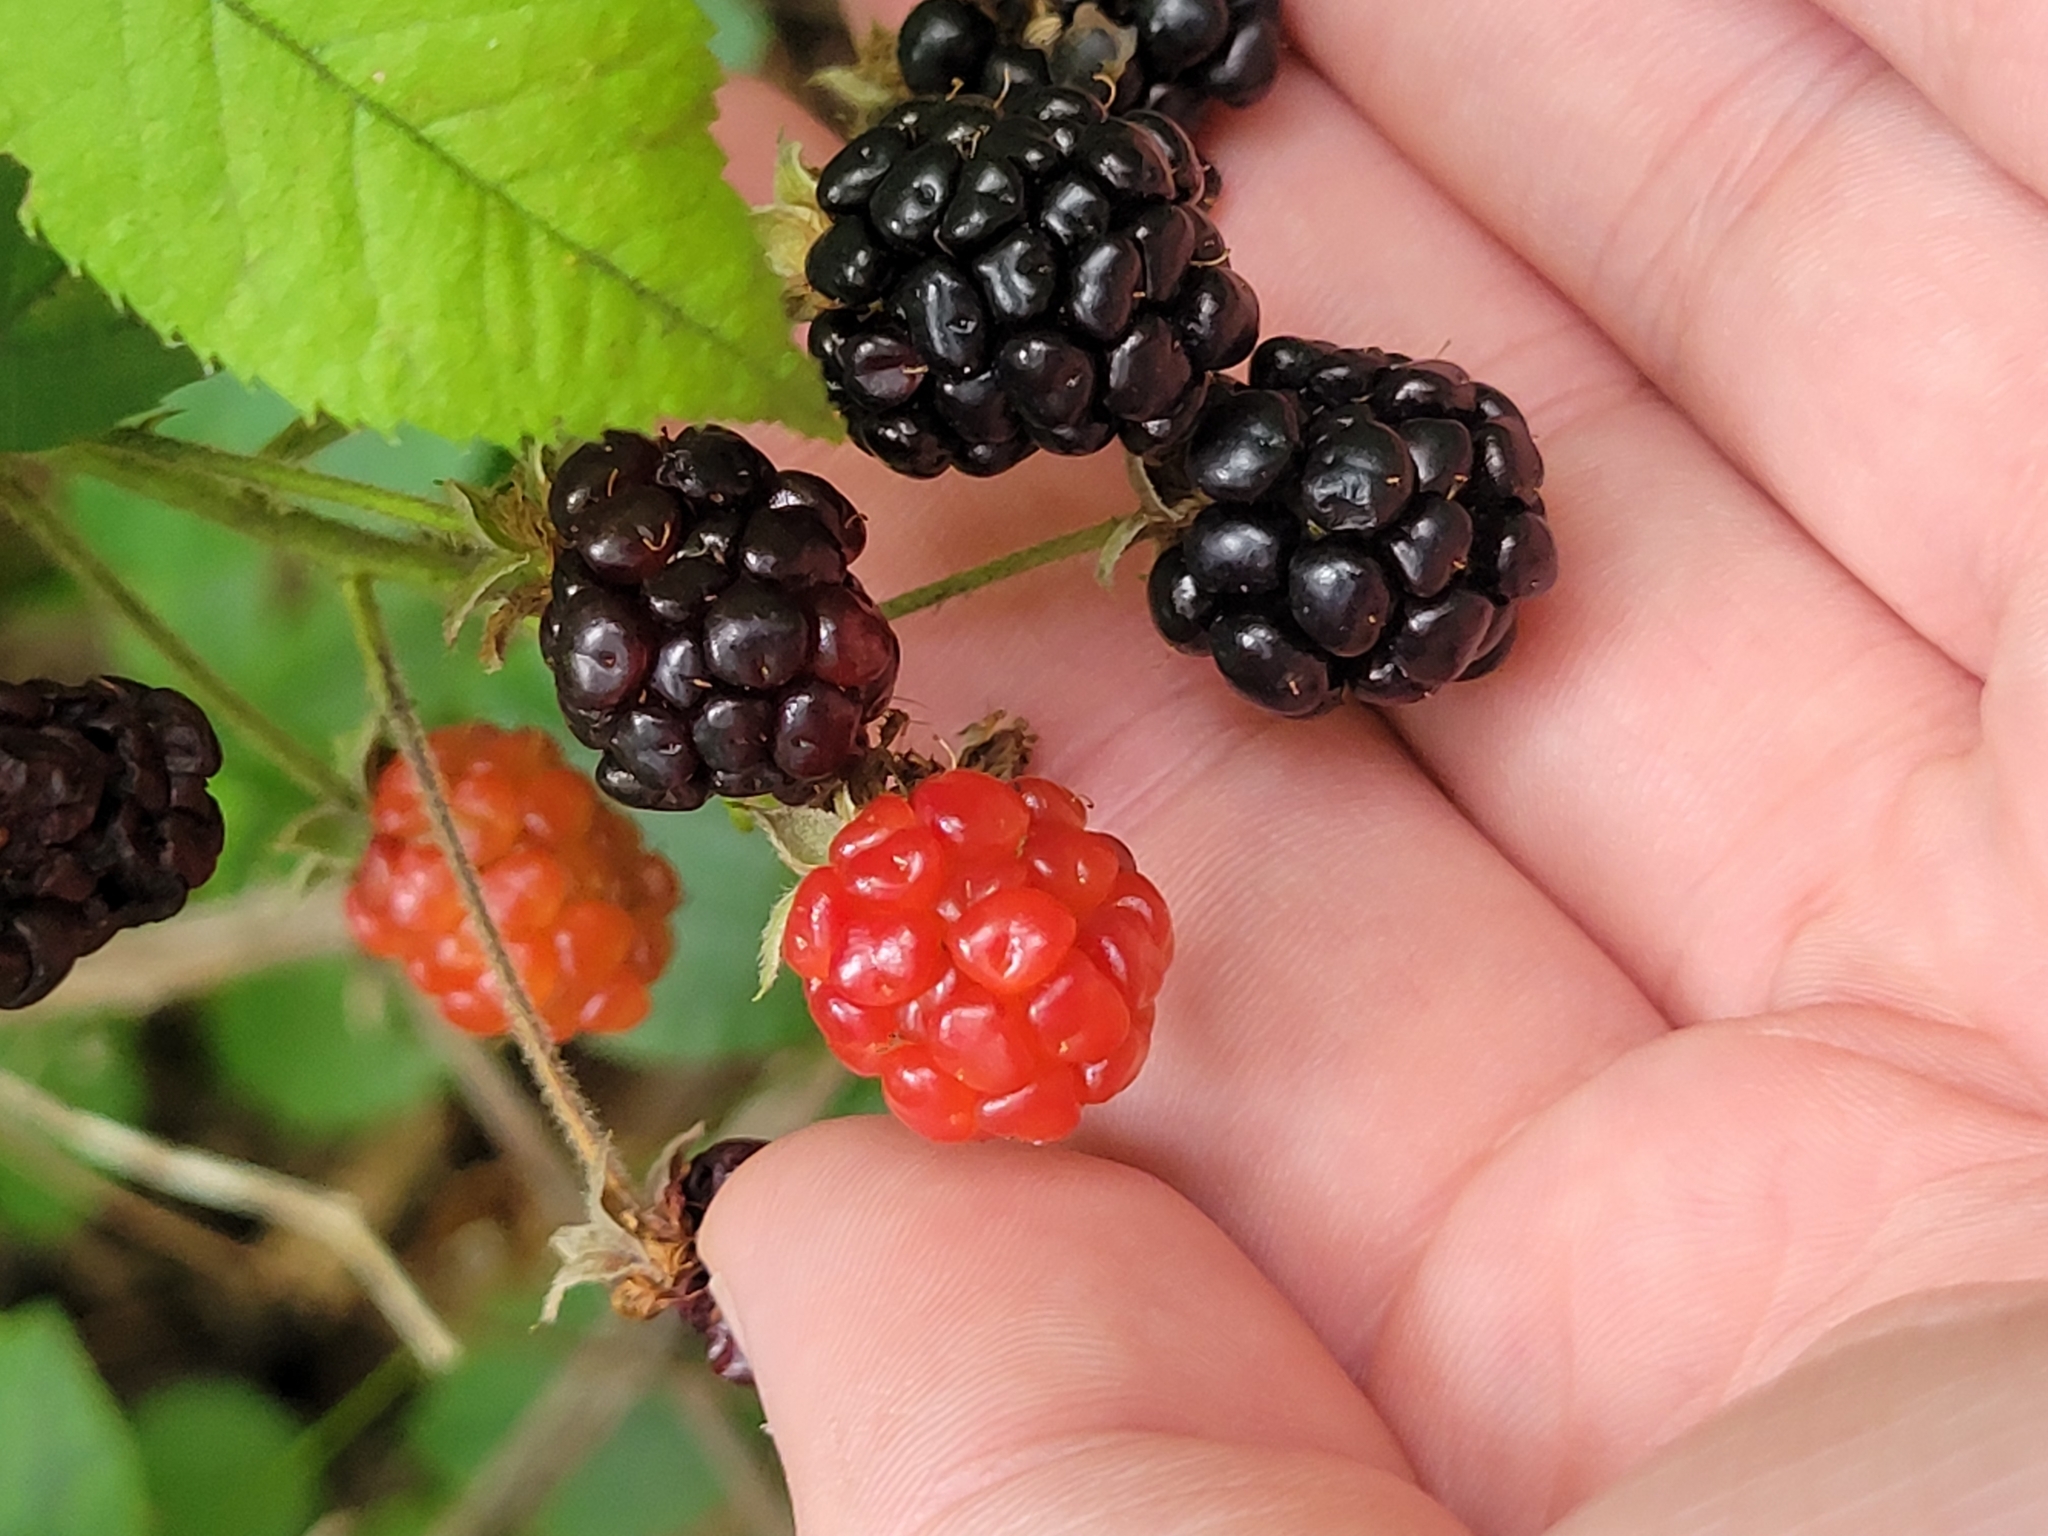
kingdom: Plantae
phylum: Tracheophyta
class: Magnoliopsida
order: Rosales
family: Rosaceae
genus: Rubus
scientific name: Rubus allegheniensis
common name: Allegheny blackberry
